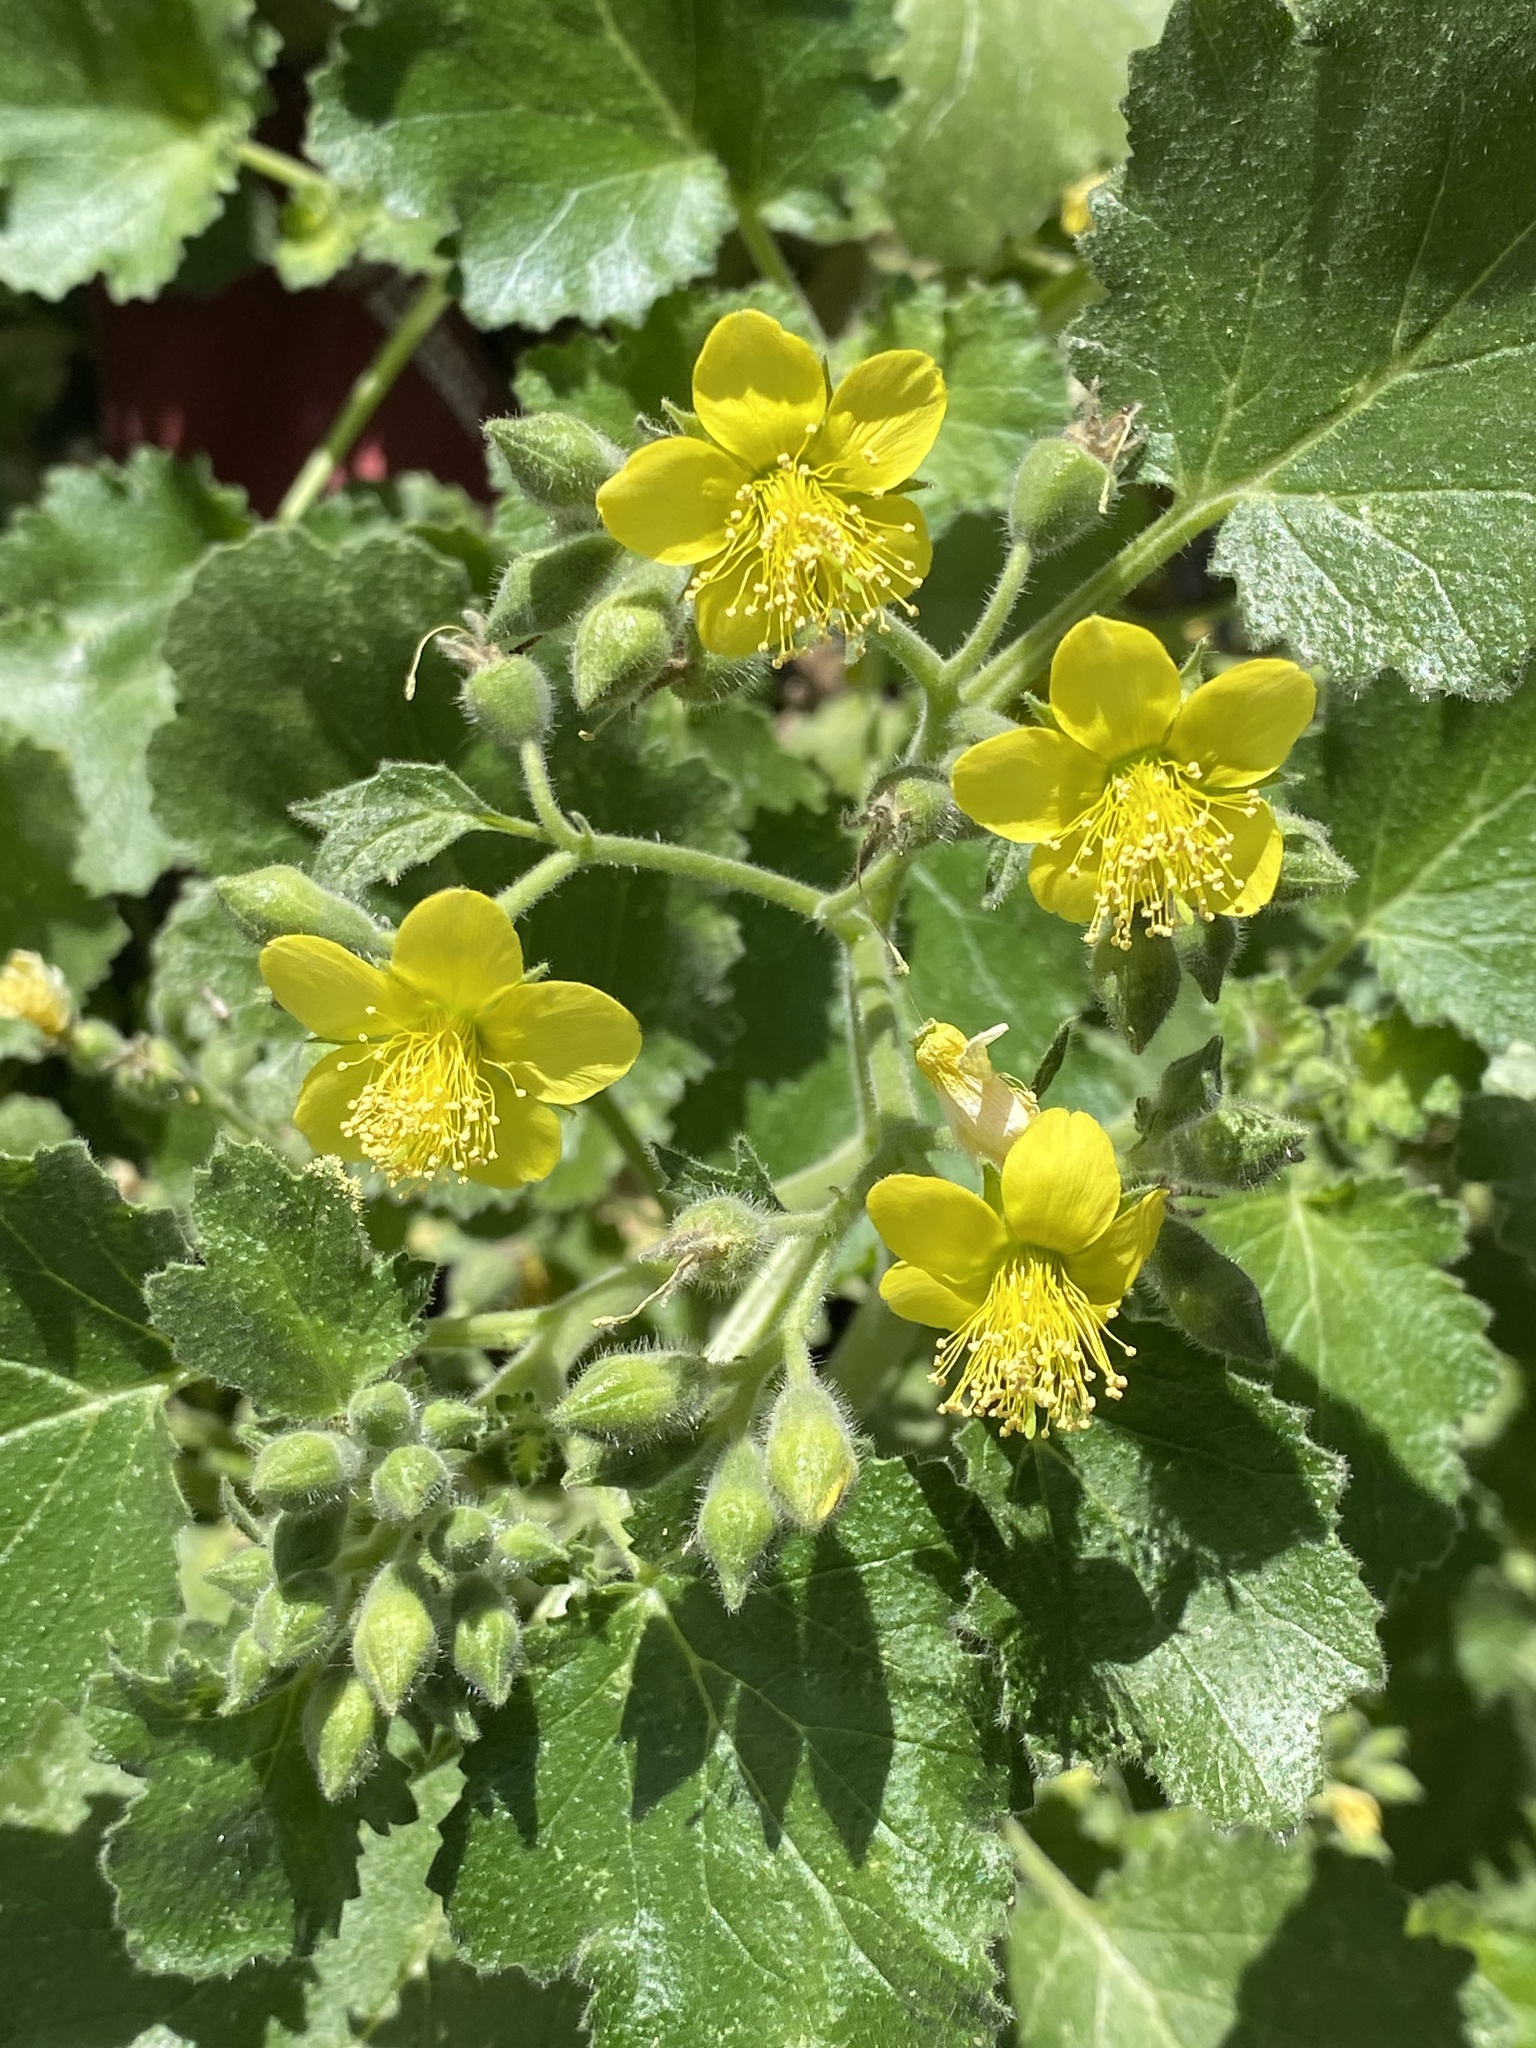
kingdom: Plantae
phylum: Tracheophyta
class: Magnoliopsida
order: Cornales
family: Loasaceae
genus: Eucnide
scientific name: Eucnide lobata
